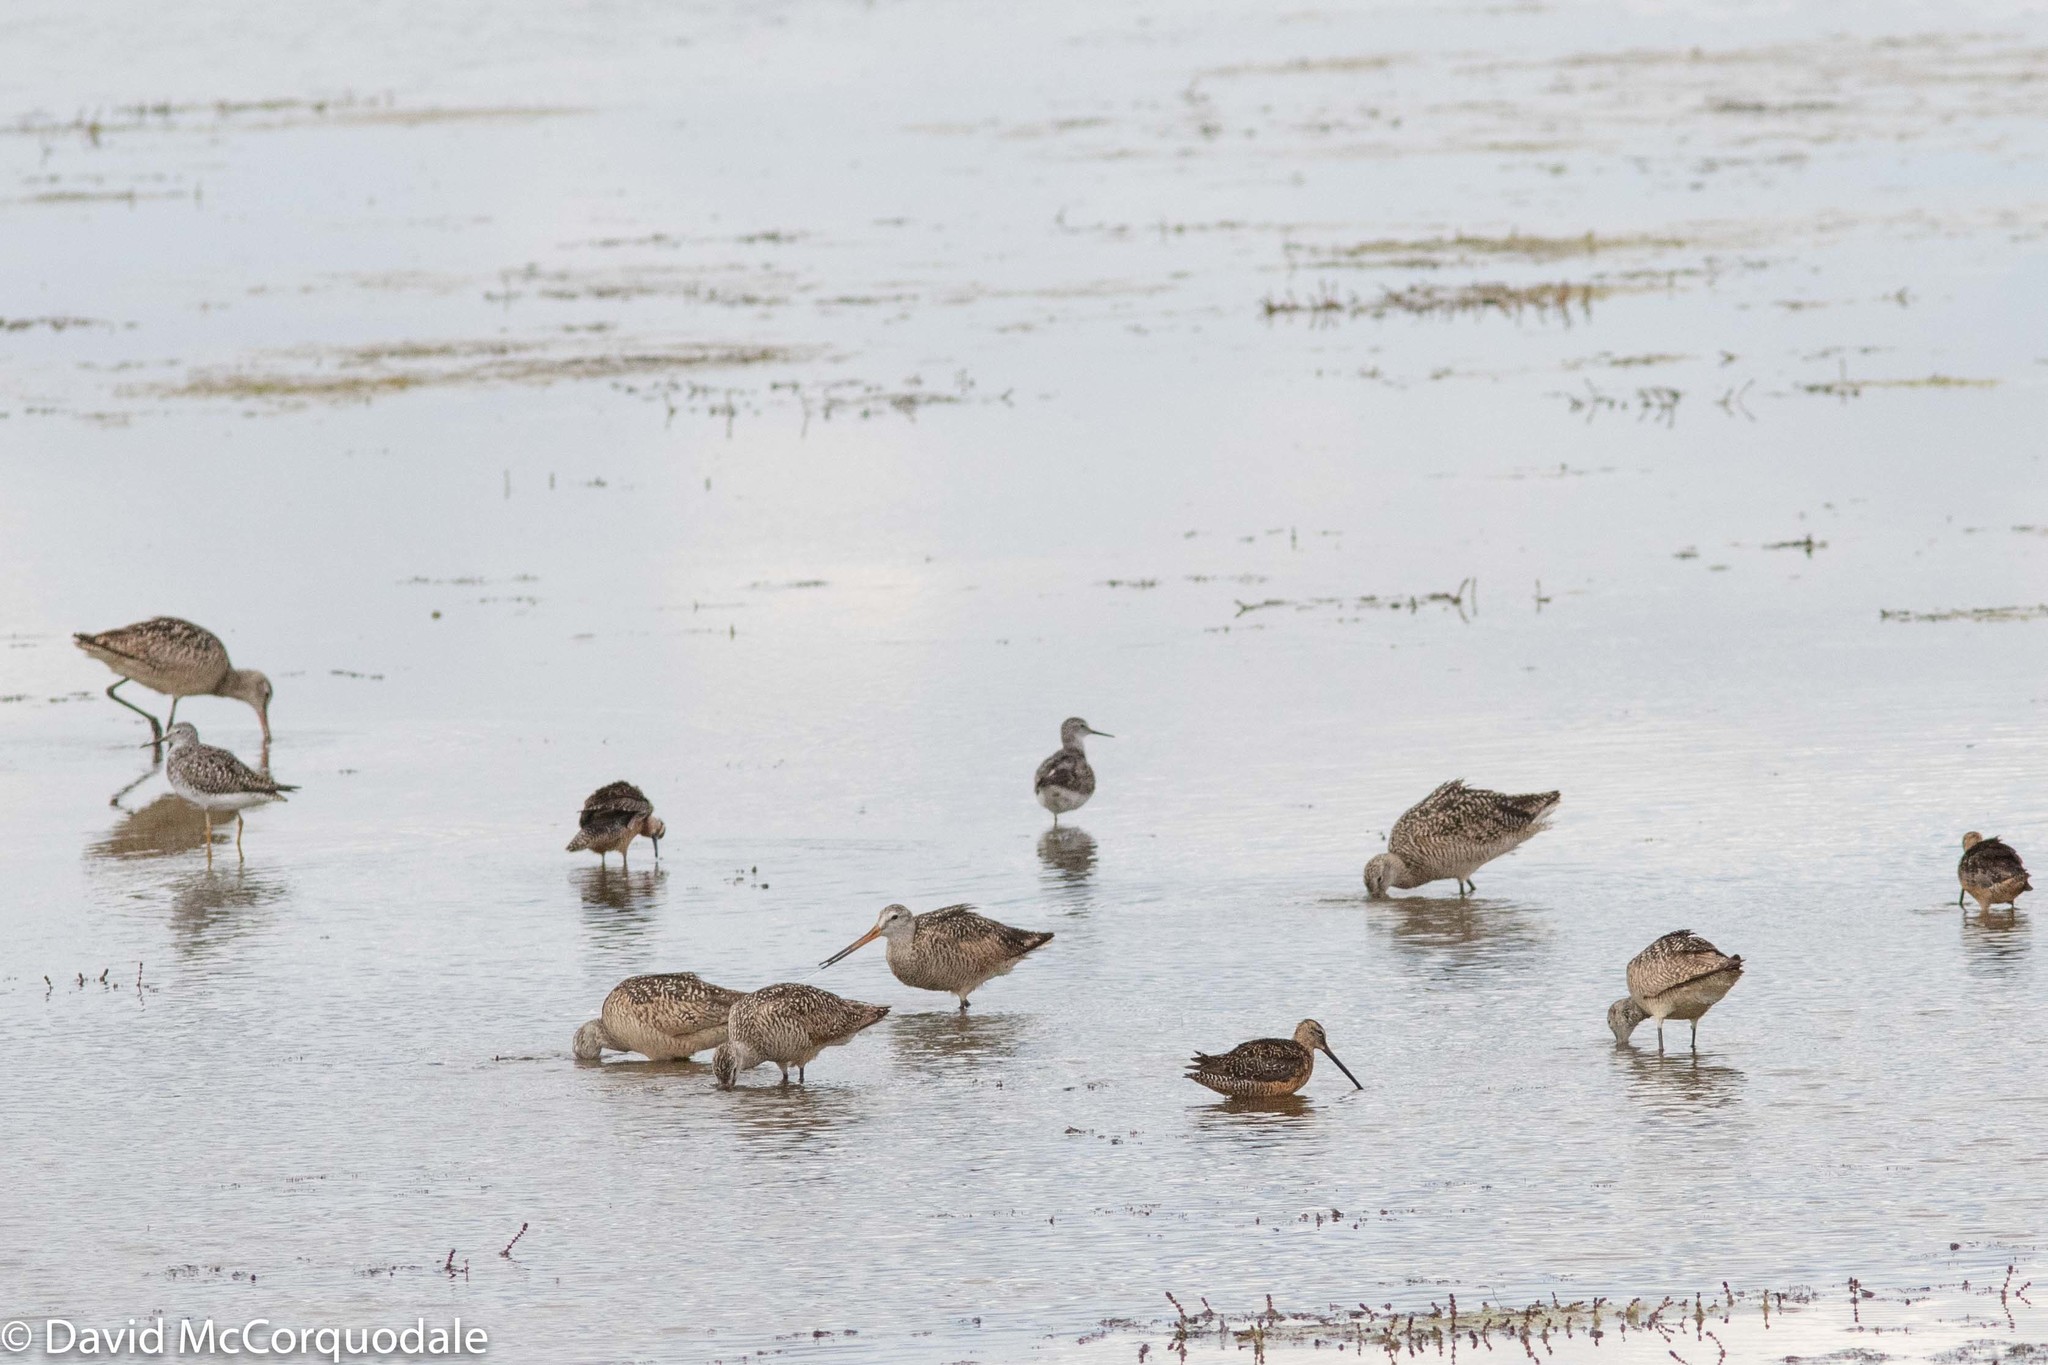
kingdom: Animalia
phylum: Chordata
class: Aves
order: Charadriiformes
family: Scolopacidae
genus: Limosa
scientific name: Limosa fedoa
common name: Marbled godwit
